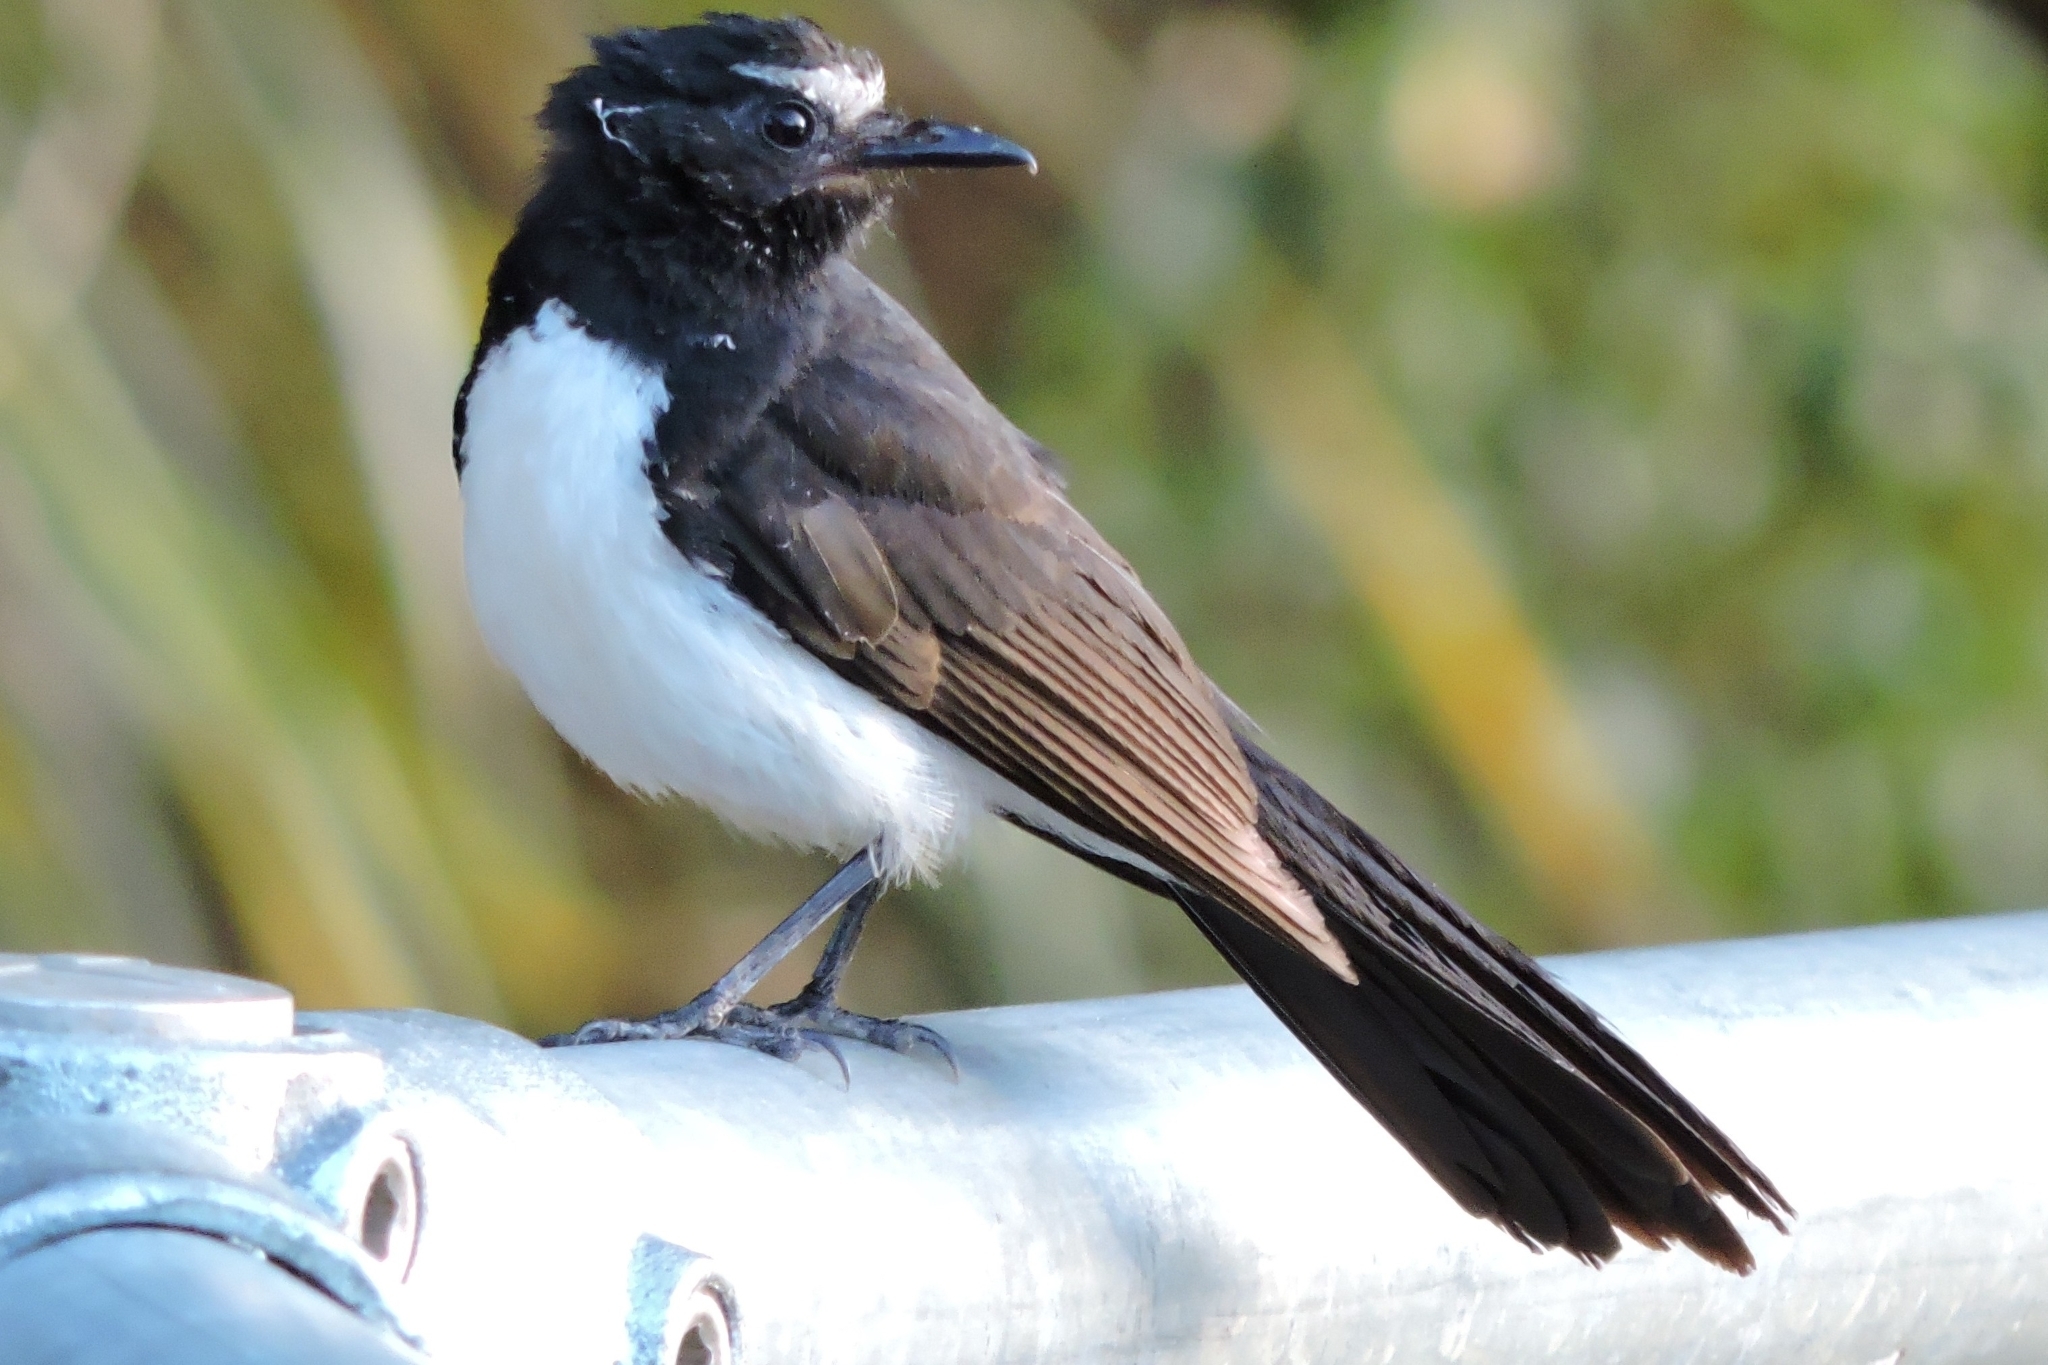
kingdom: Animalia
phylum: Chordata
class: Aves
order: Passeriformes
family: Rhipiduridae
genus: Rhipidura
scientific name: Rhipidura leucophrys
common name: Willie wagtail
